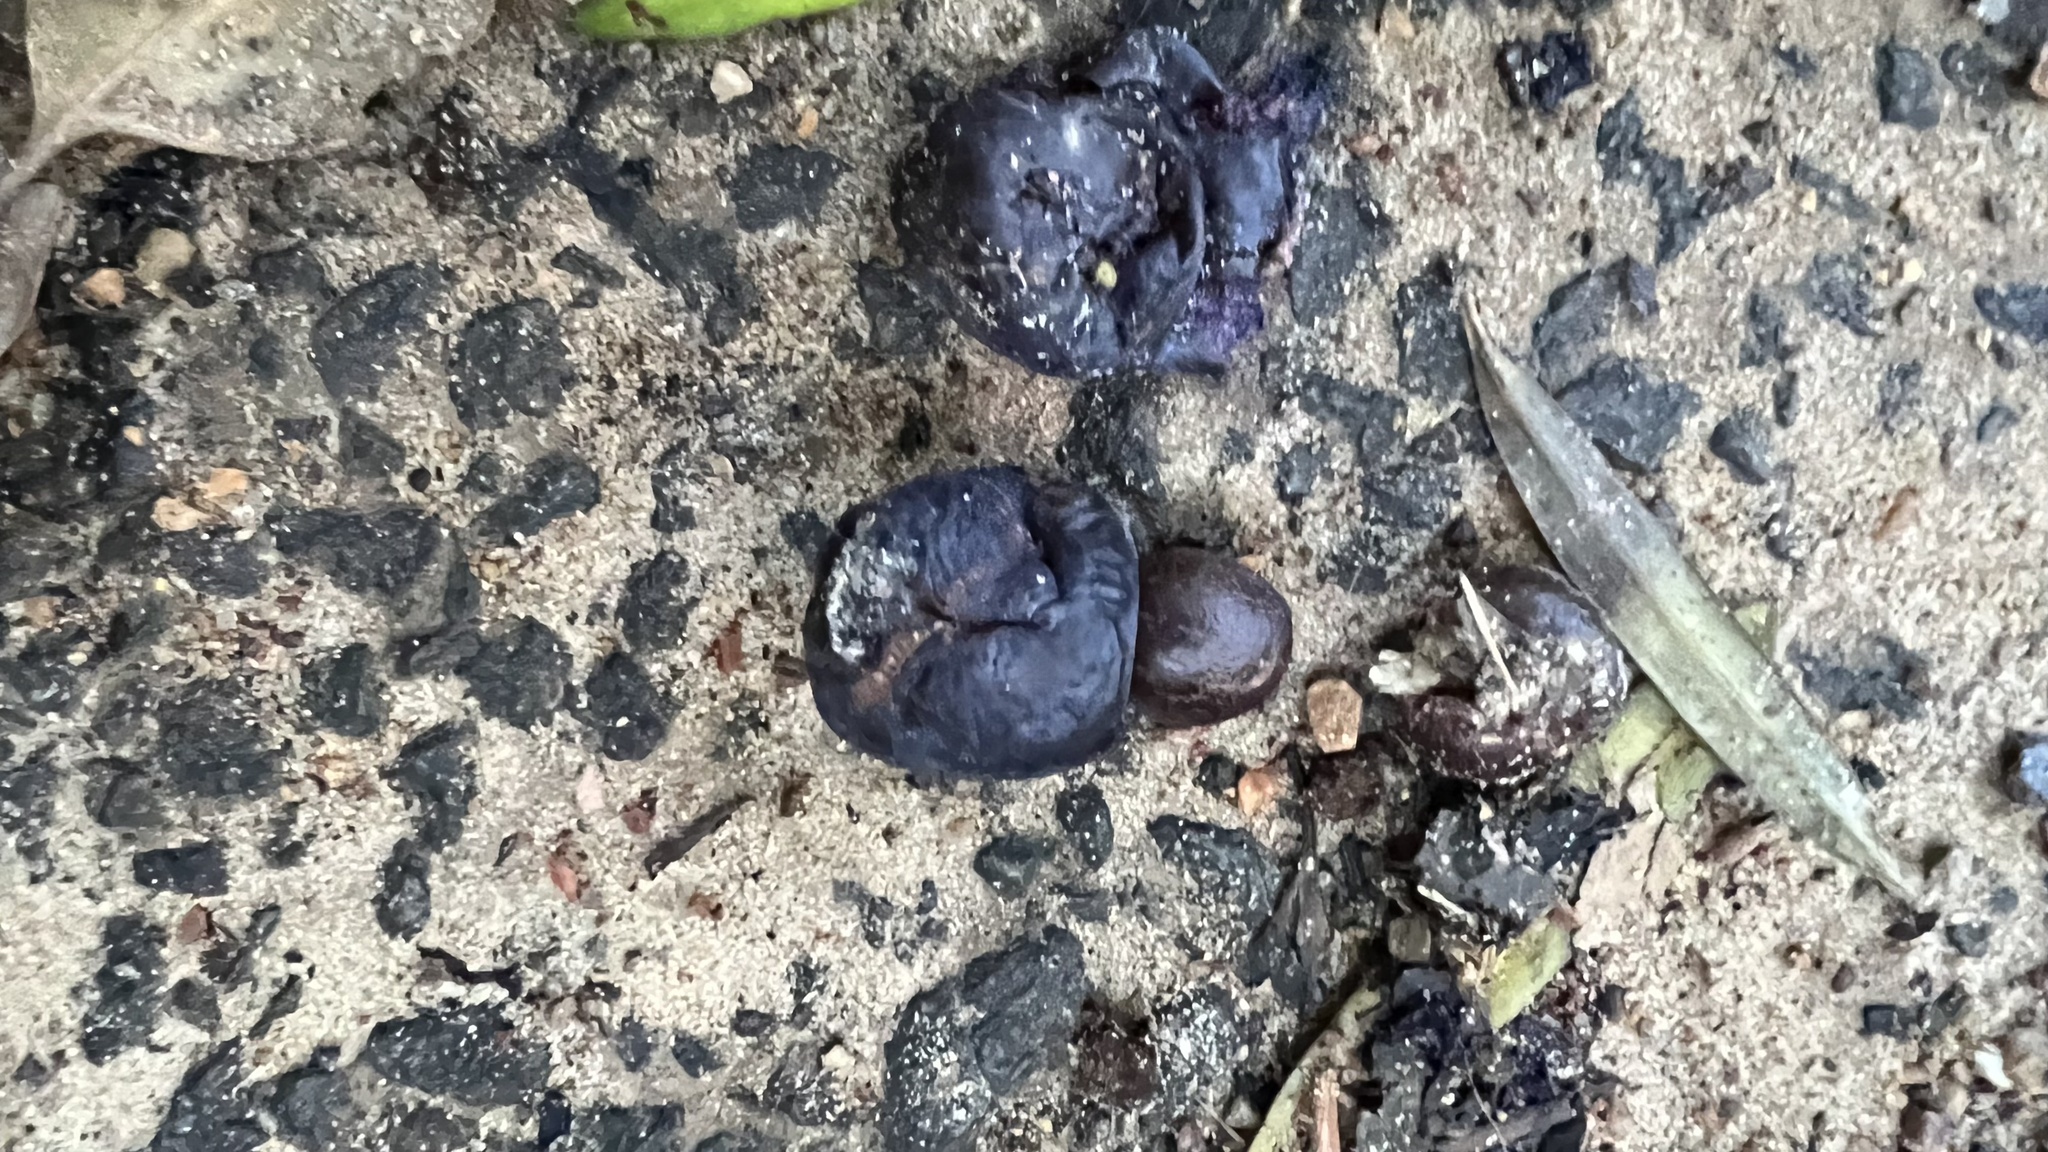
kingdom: Plantae
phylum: Tracheophyta
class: Pinopsida
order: Pinales
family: Podocarpaceae
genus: Podocarpus
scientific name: Podocarpus elatus
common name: Plum pine
